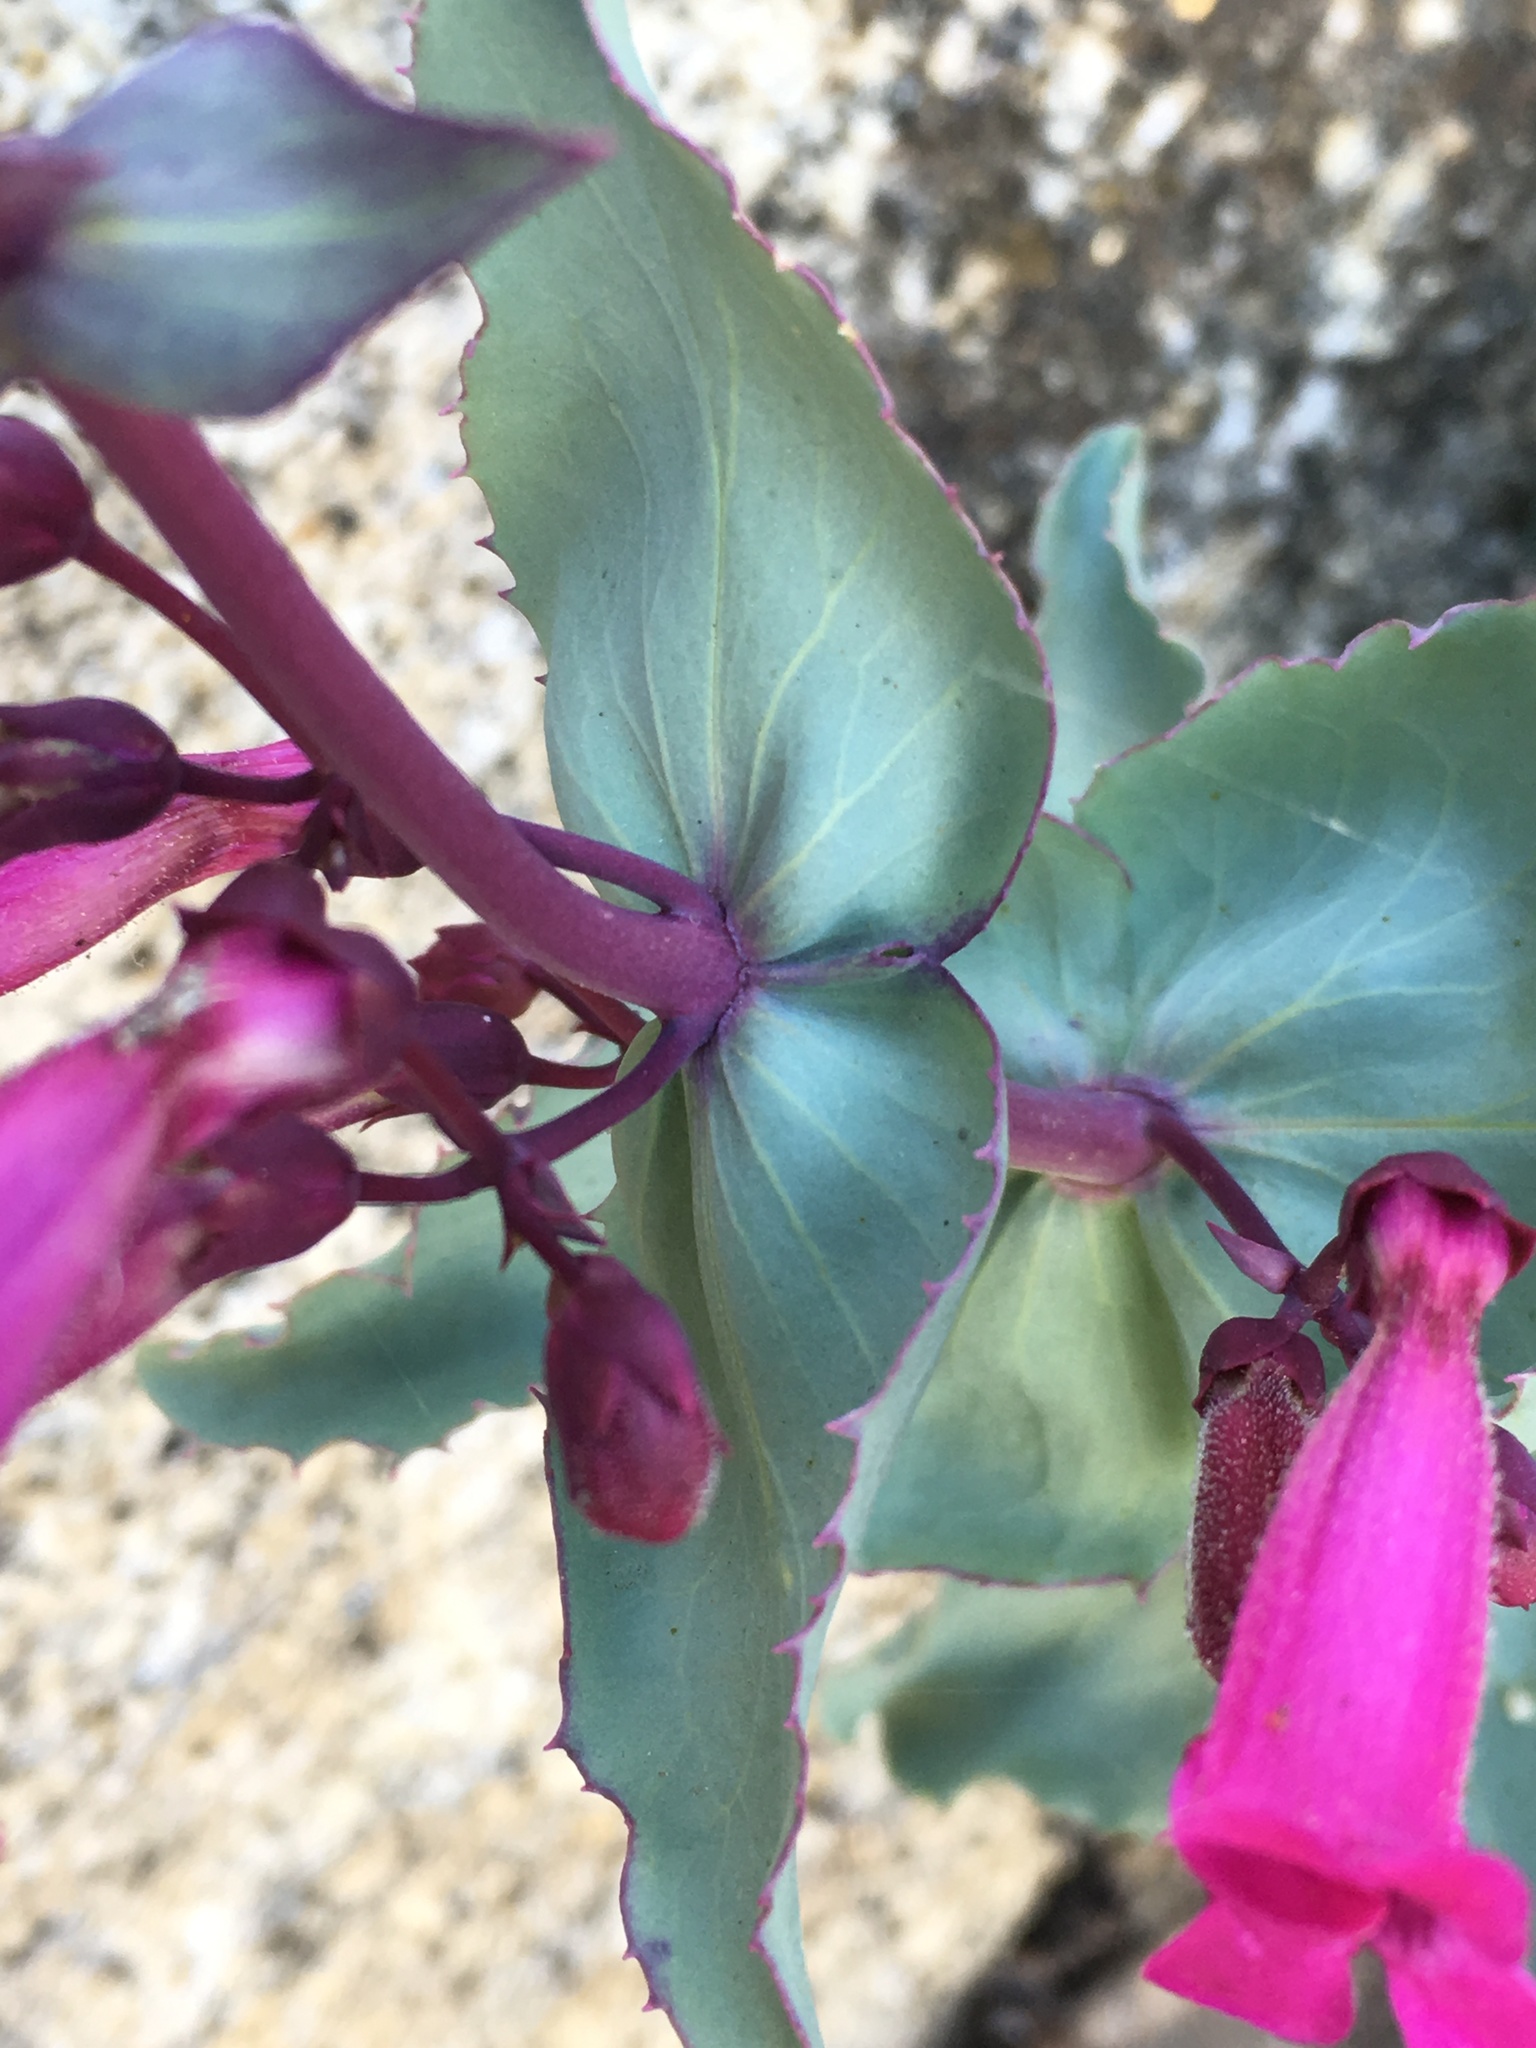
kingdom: Plantae
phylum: Tracheophyta
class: Magnoliopsida
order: Lamiales
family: Plantaginaceae
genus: Penstemon
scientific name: Penstemon clevelandii
